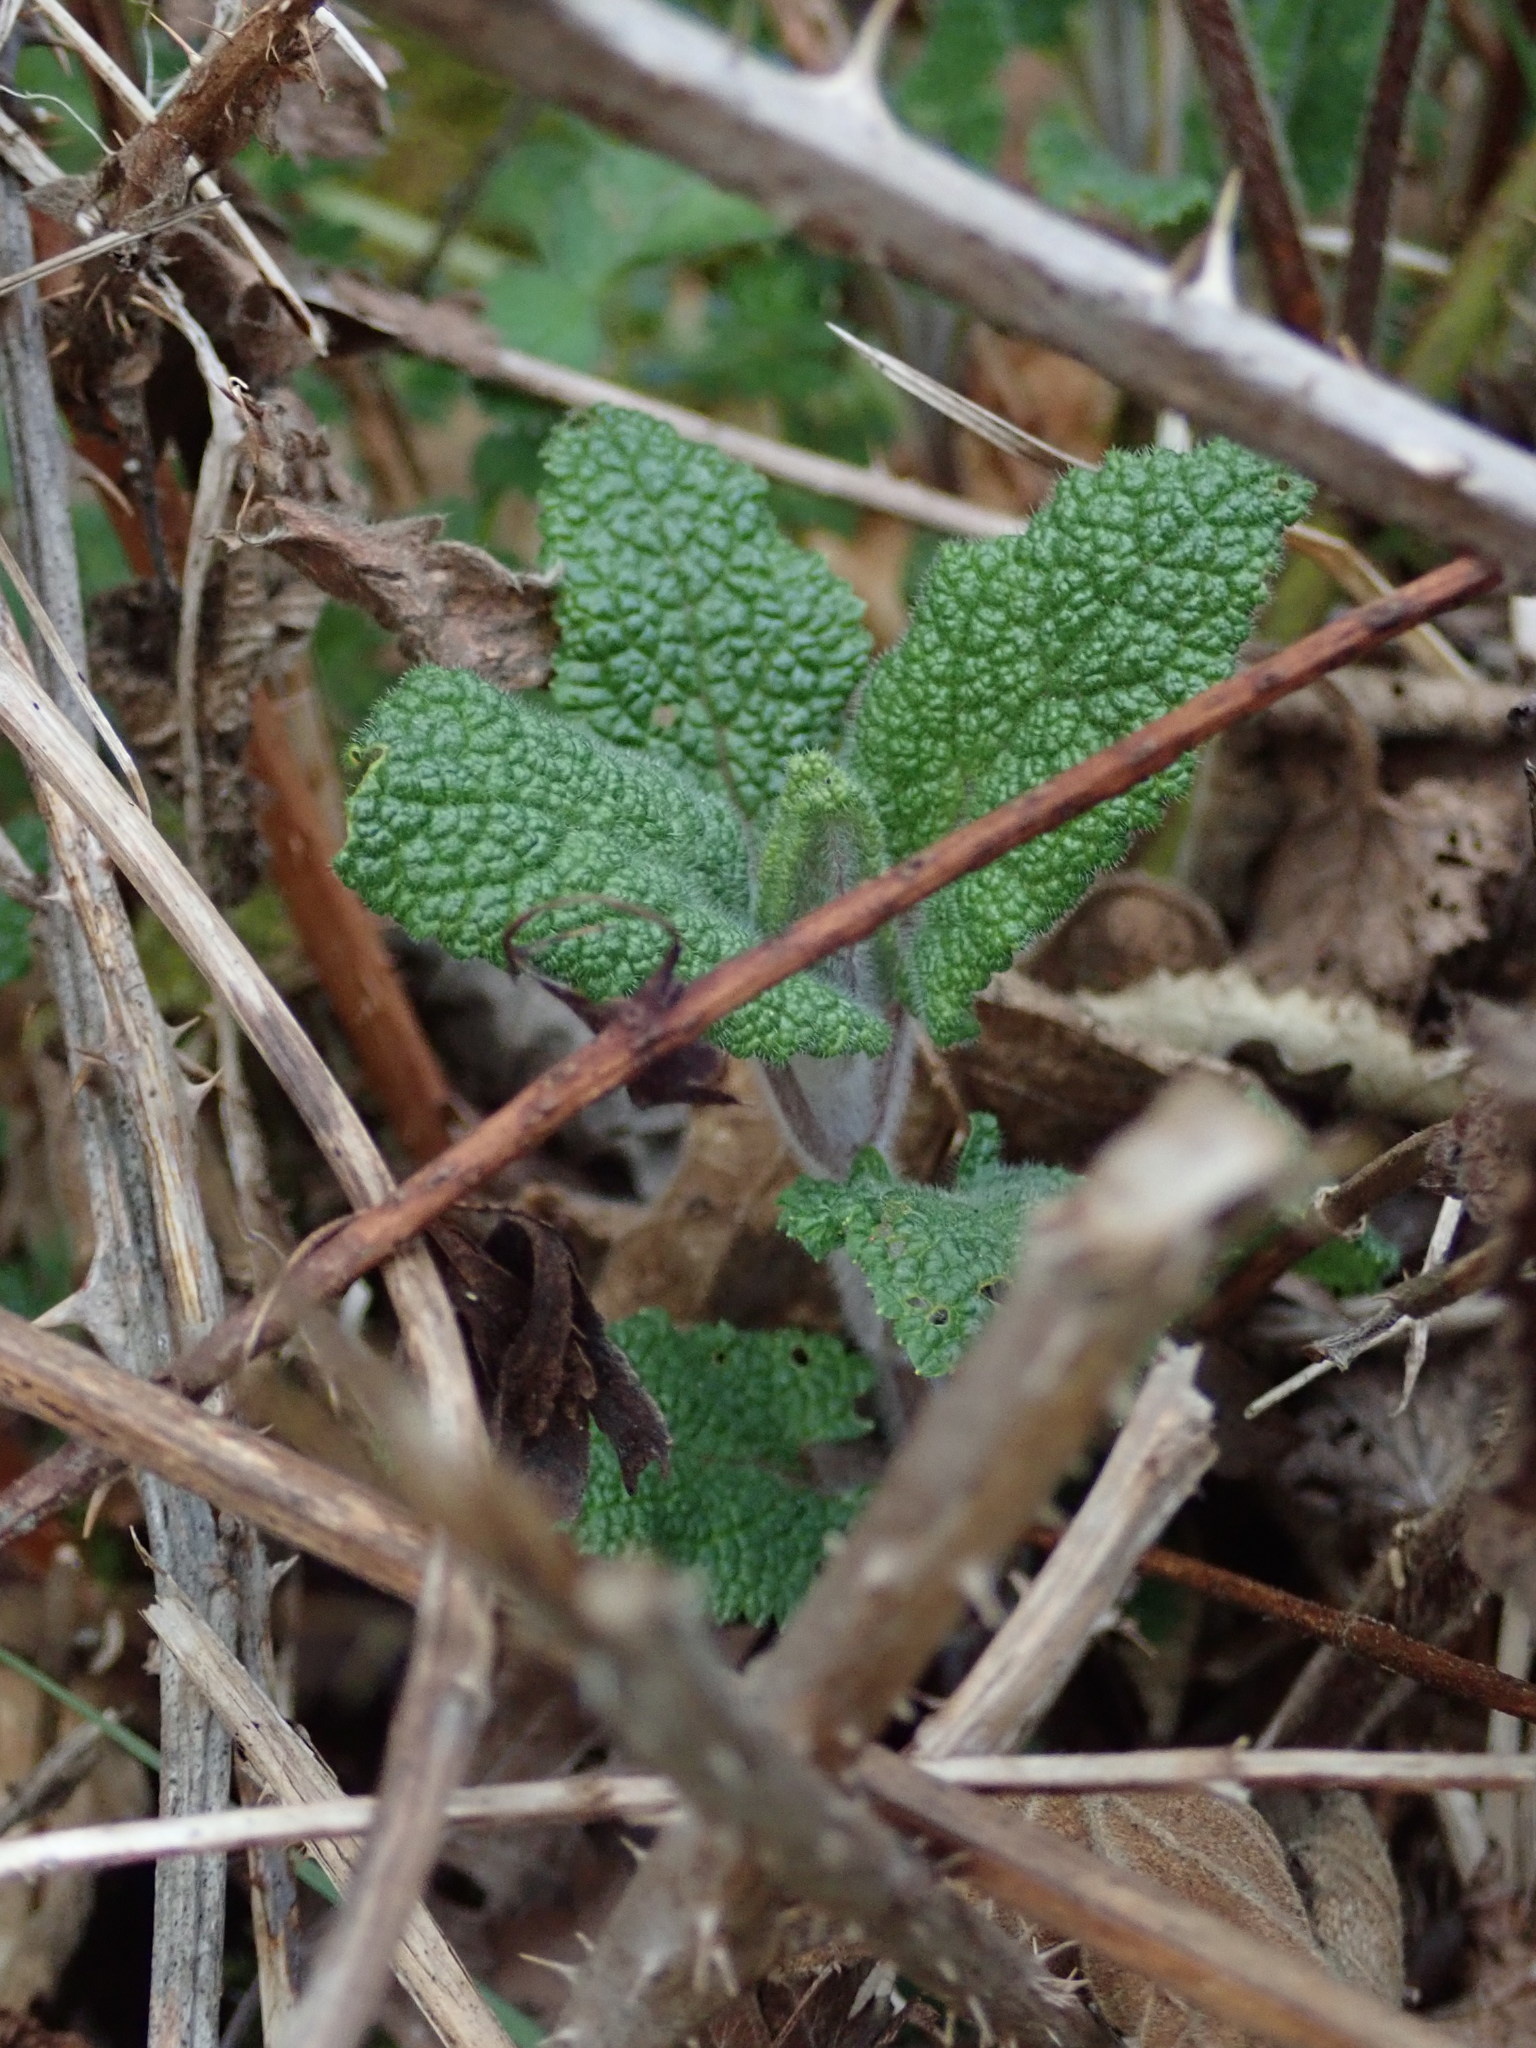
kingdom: Plantae
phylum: Tracheophyta
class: Magnoliopsida
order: Lamiales
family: Lamiaceae
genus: Teucrium
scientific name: Teucrium scorodonia
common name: Woodland germander
